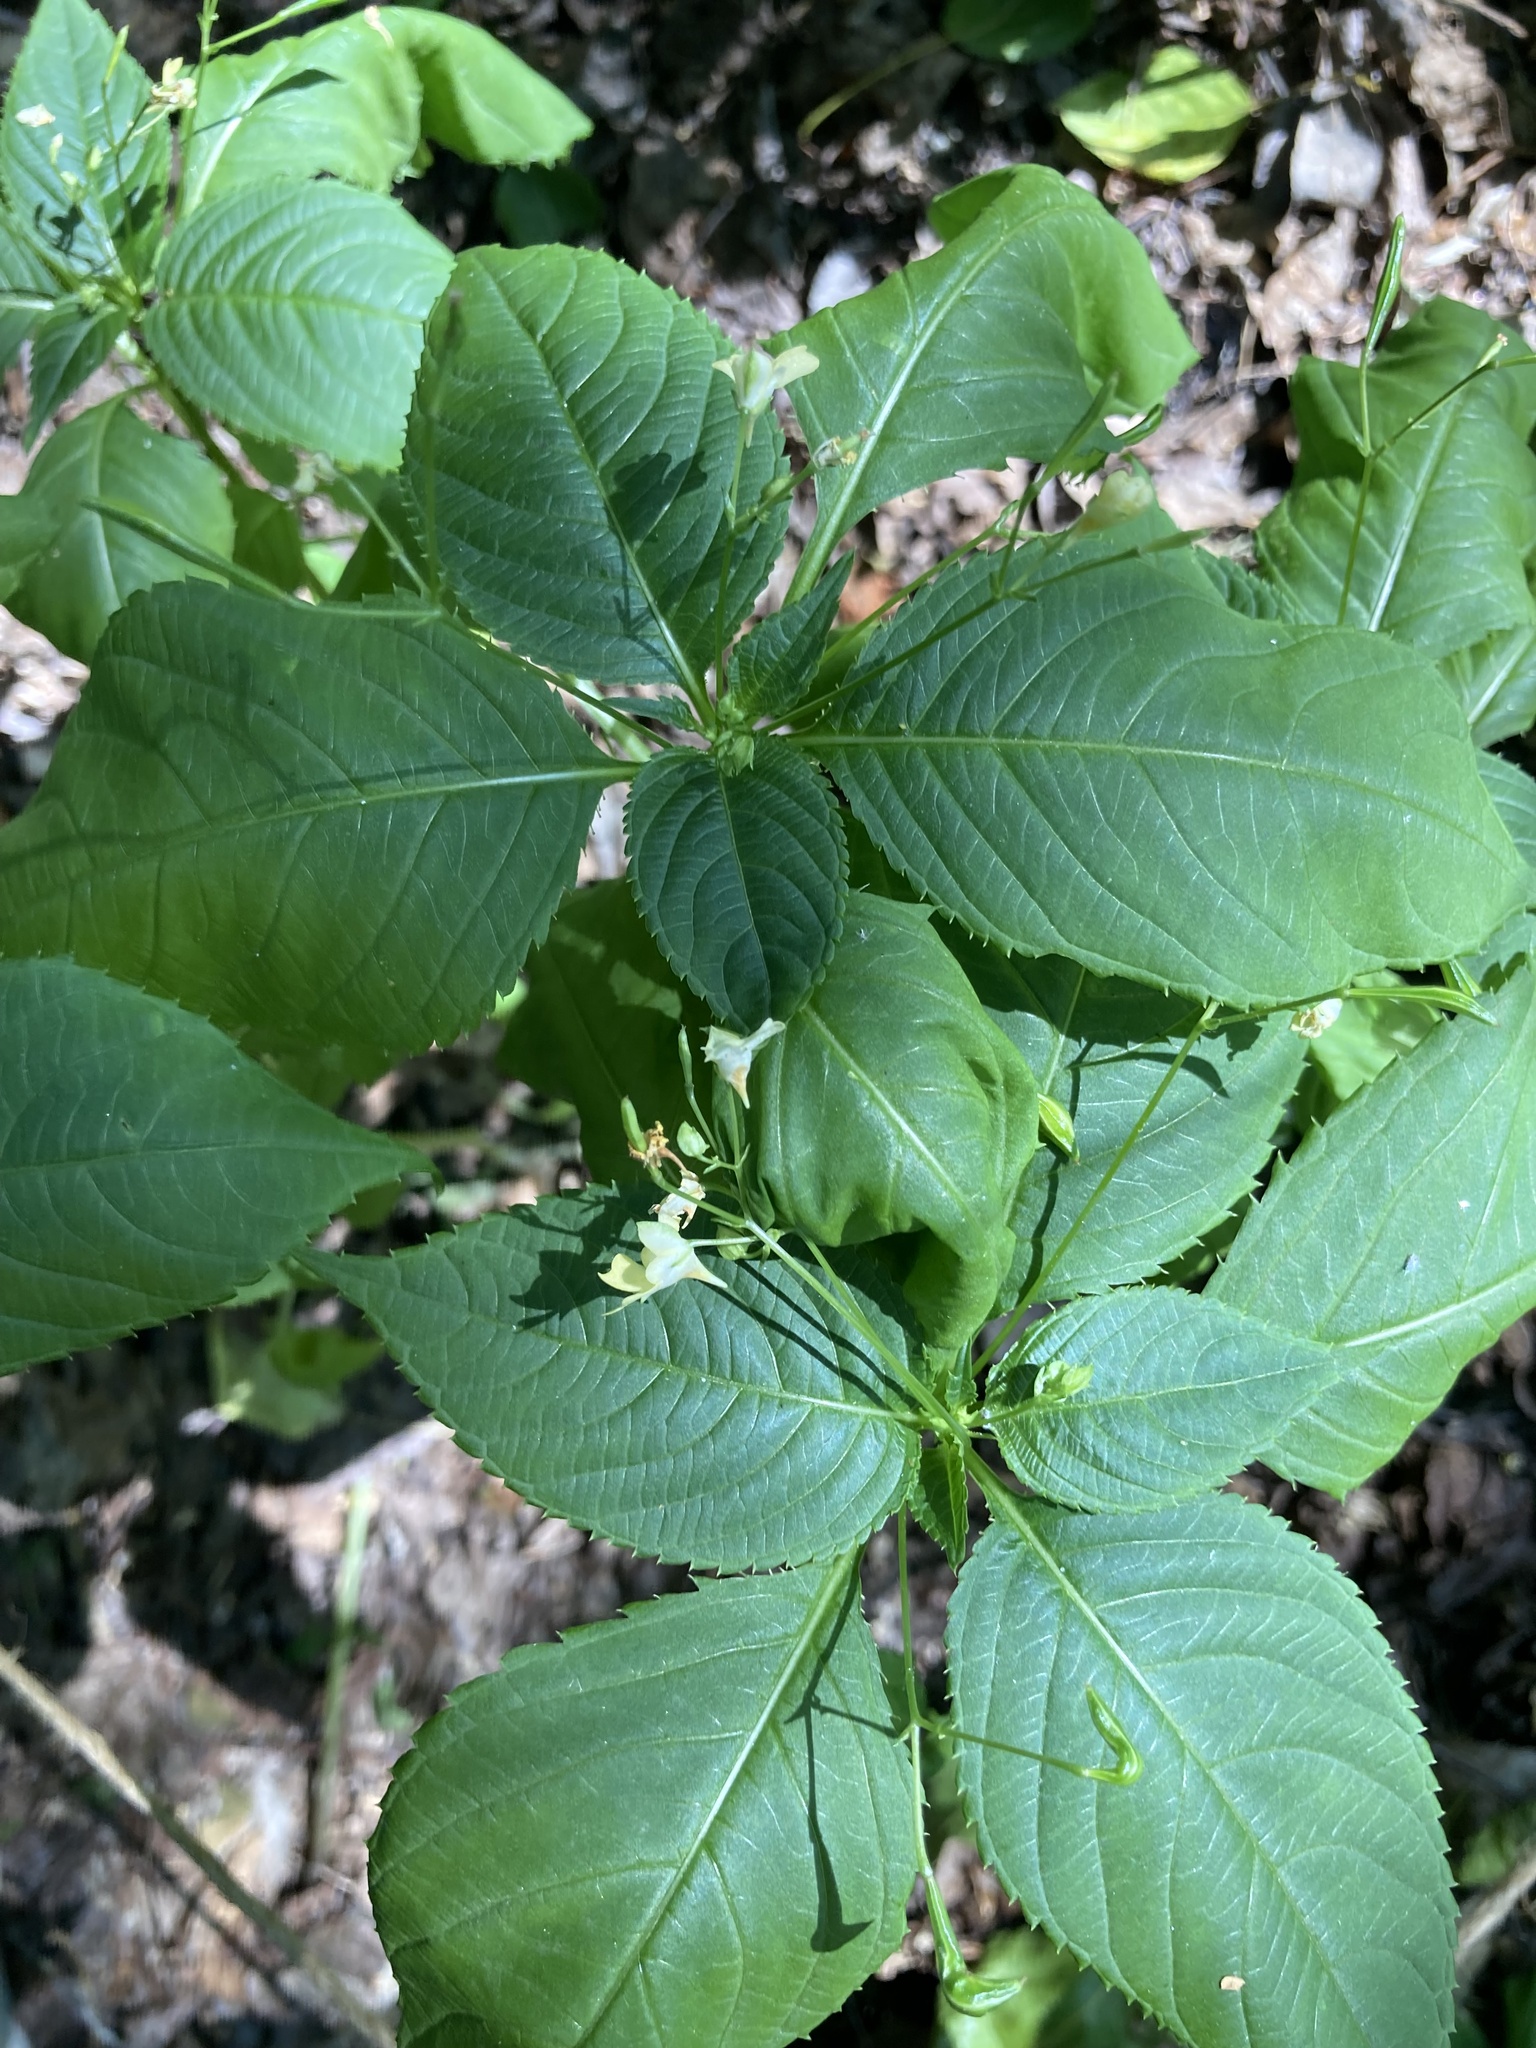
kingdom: Plantae
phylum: Tracheophyta
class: Magnoliopsida
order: Ericales
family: Balsaminaceae
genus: Impatiens
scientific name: Impatiens parviflora
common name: Small balsam
